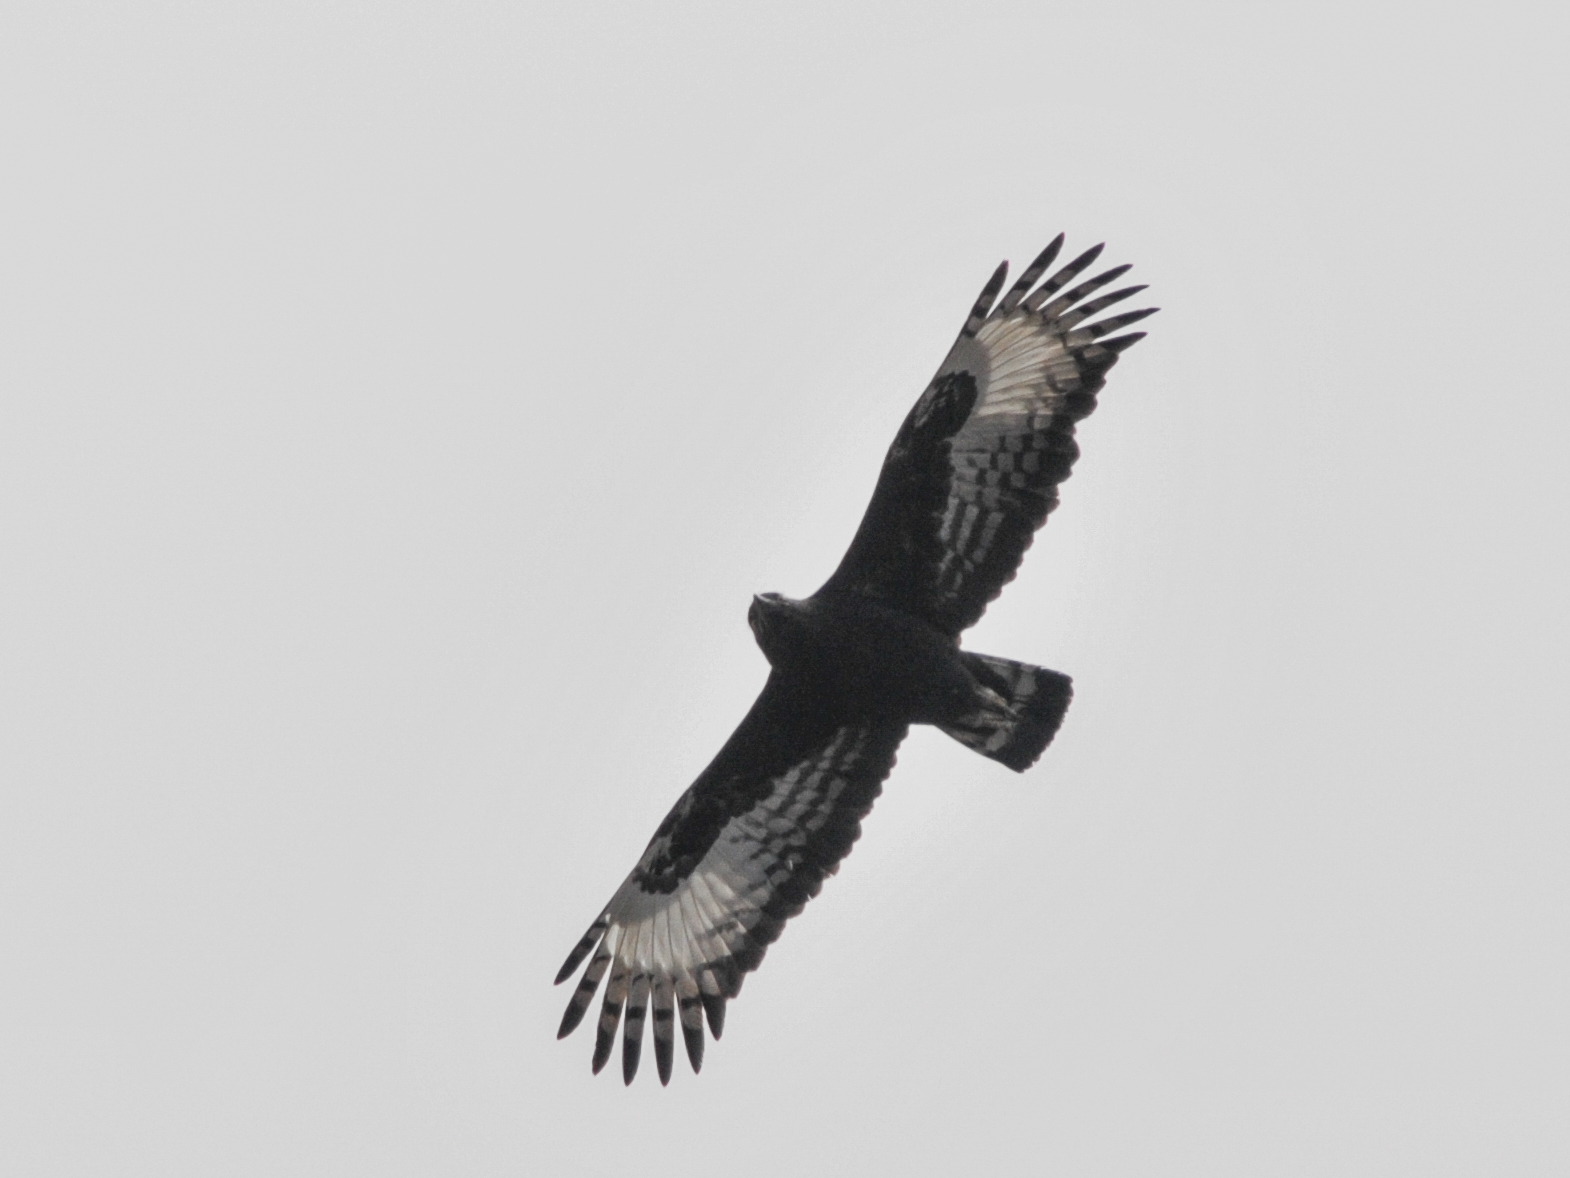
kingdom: Animalia
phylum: Chordata
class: Aves
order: Accipitriformes
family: Accipitridae
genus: Lophaetus
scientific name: Lophaetus occipitalis
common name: Long-crested eagle
